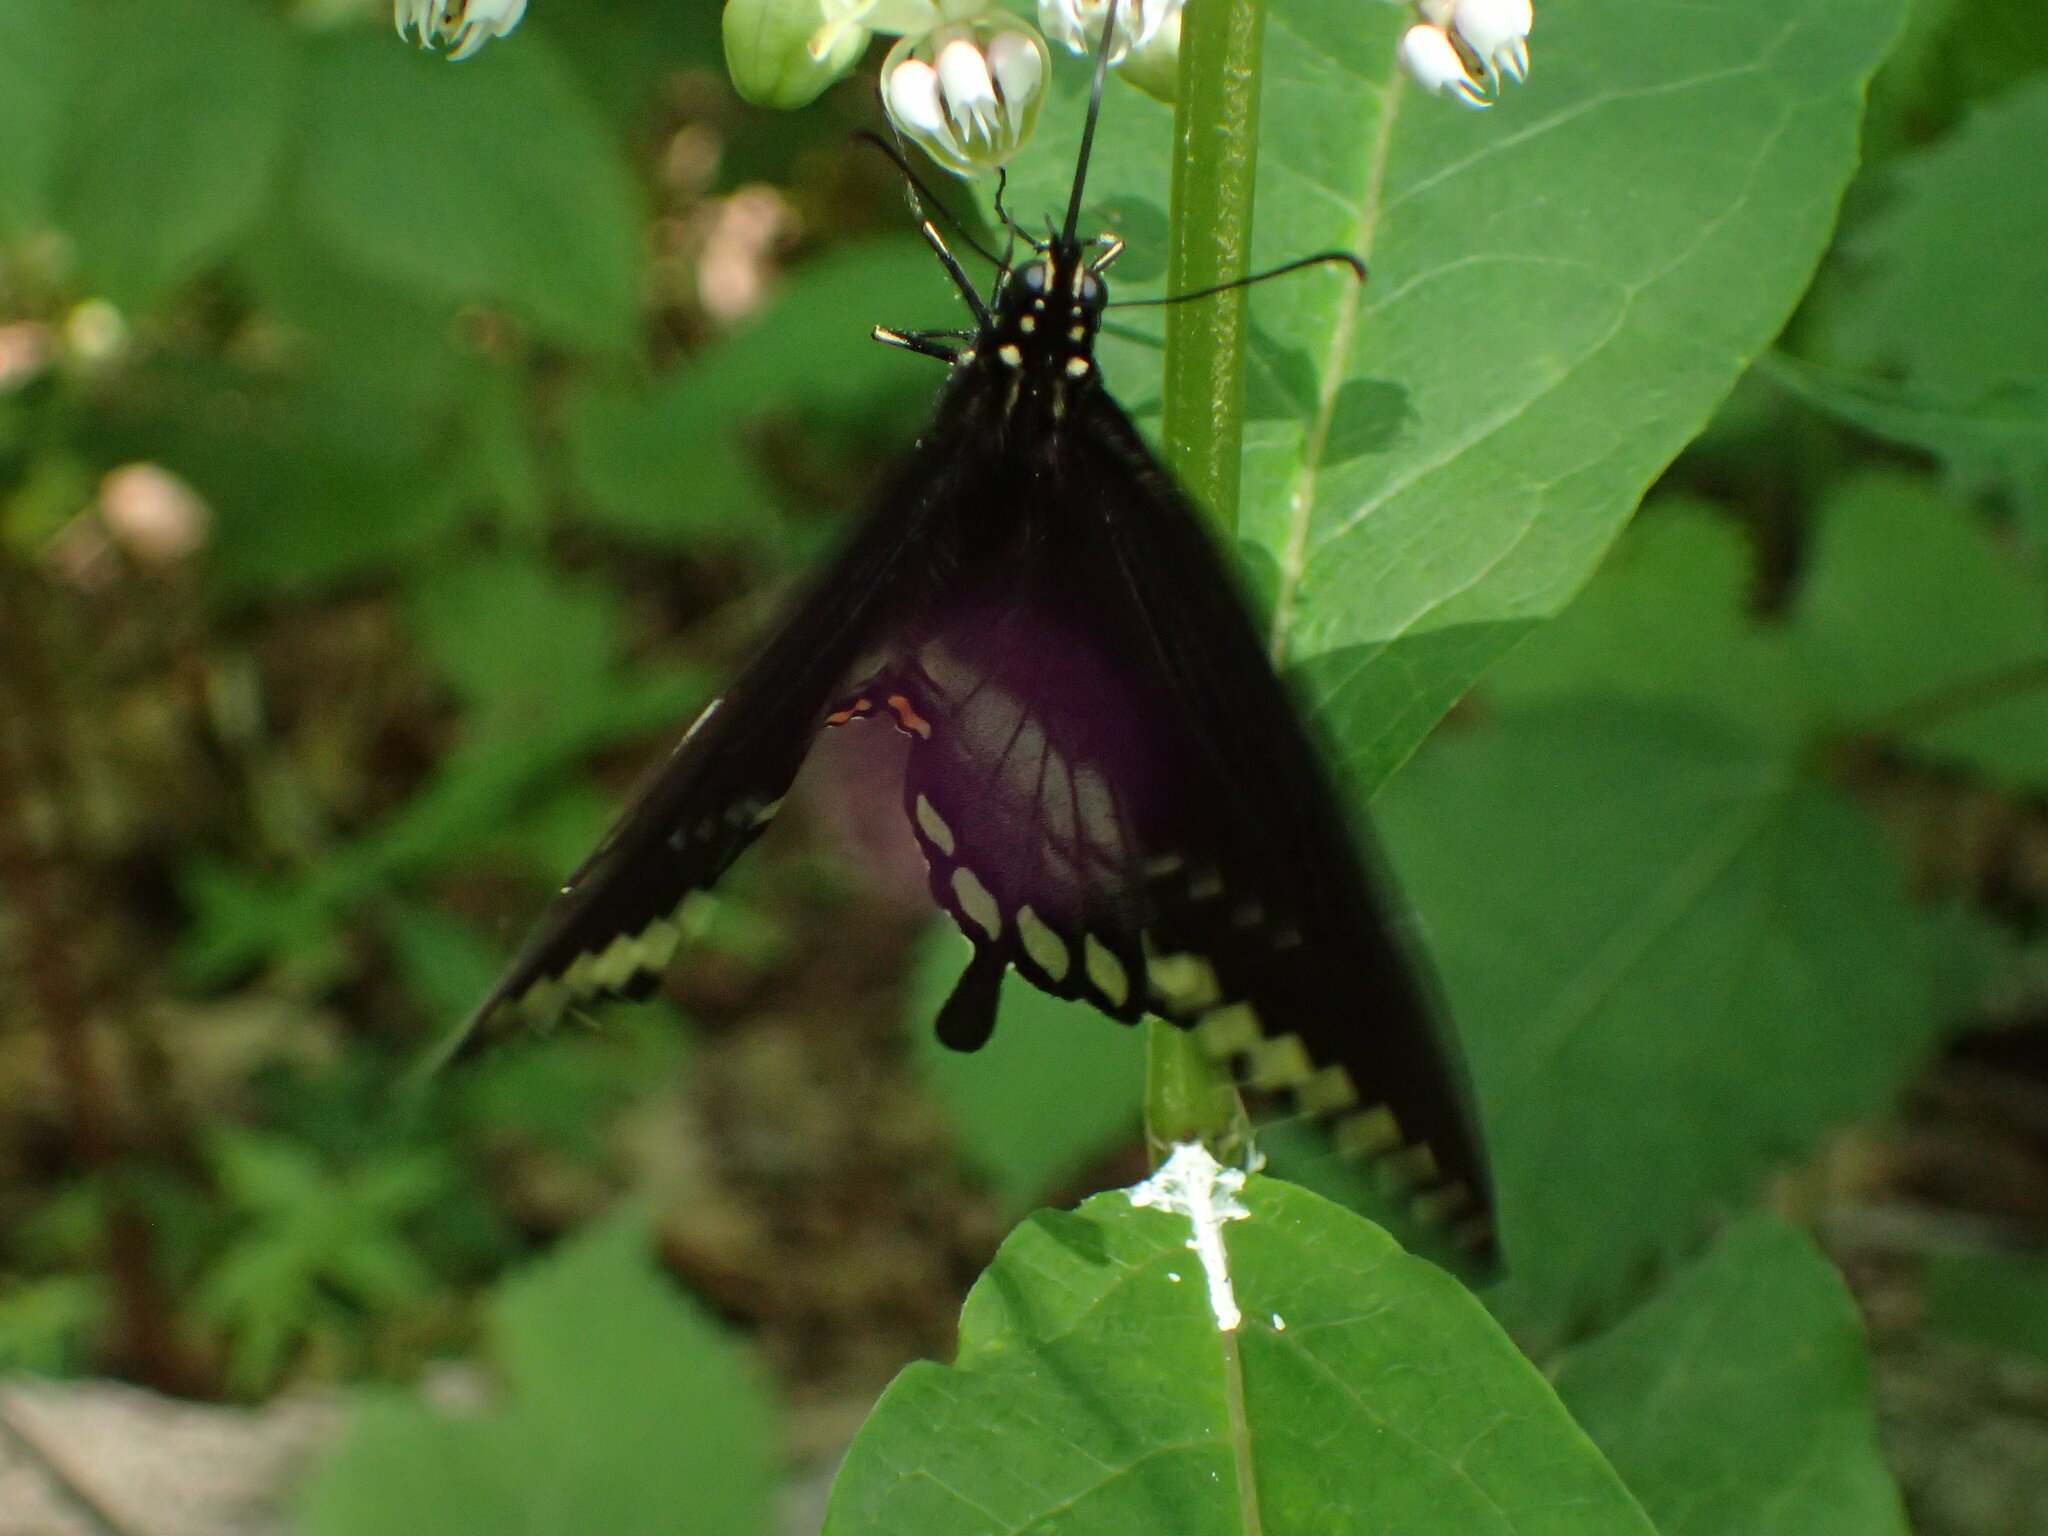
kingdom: Animalia
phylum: Arthropoda
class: Insecta
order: Lepidoptera
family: Papilionidae
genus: Papilio
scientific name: Papilio troilus
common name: Spicebush swallowtail
